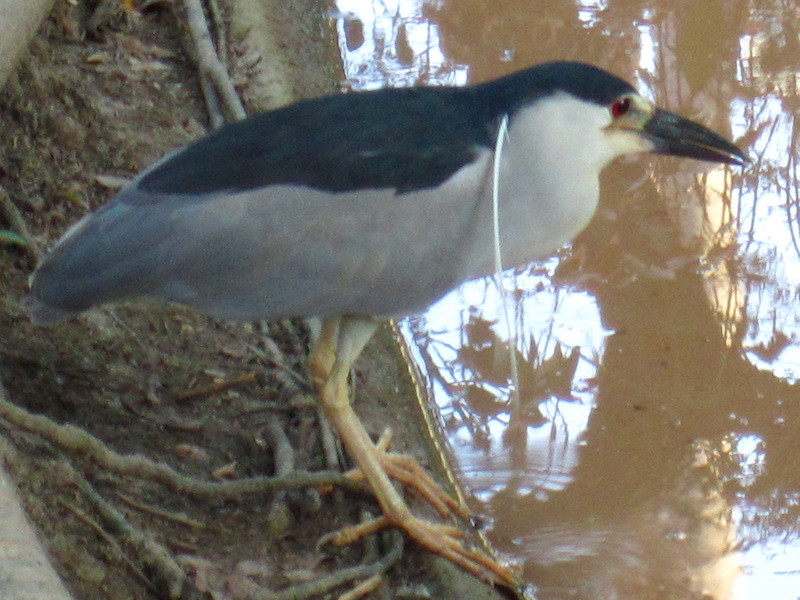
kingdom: Animalia
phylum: Chordata
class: Aves
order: Pelecaniformes
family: Ardeidae
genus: Nycticorax
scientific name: Nycticorax nycticorax
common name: Black-crowned night heron
